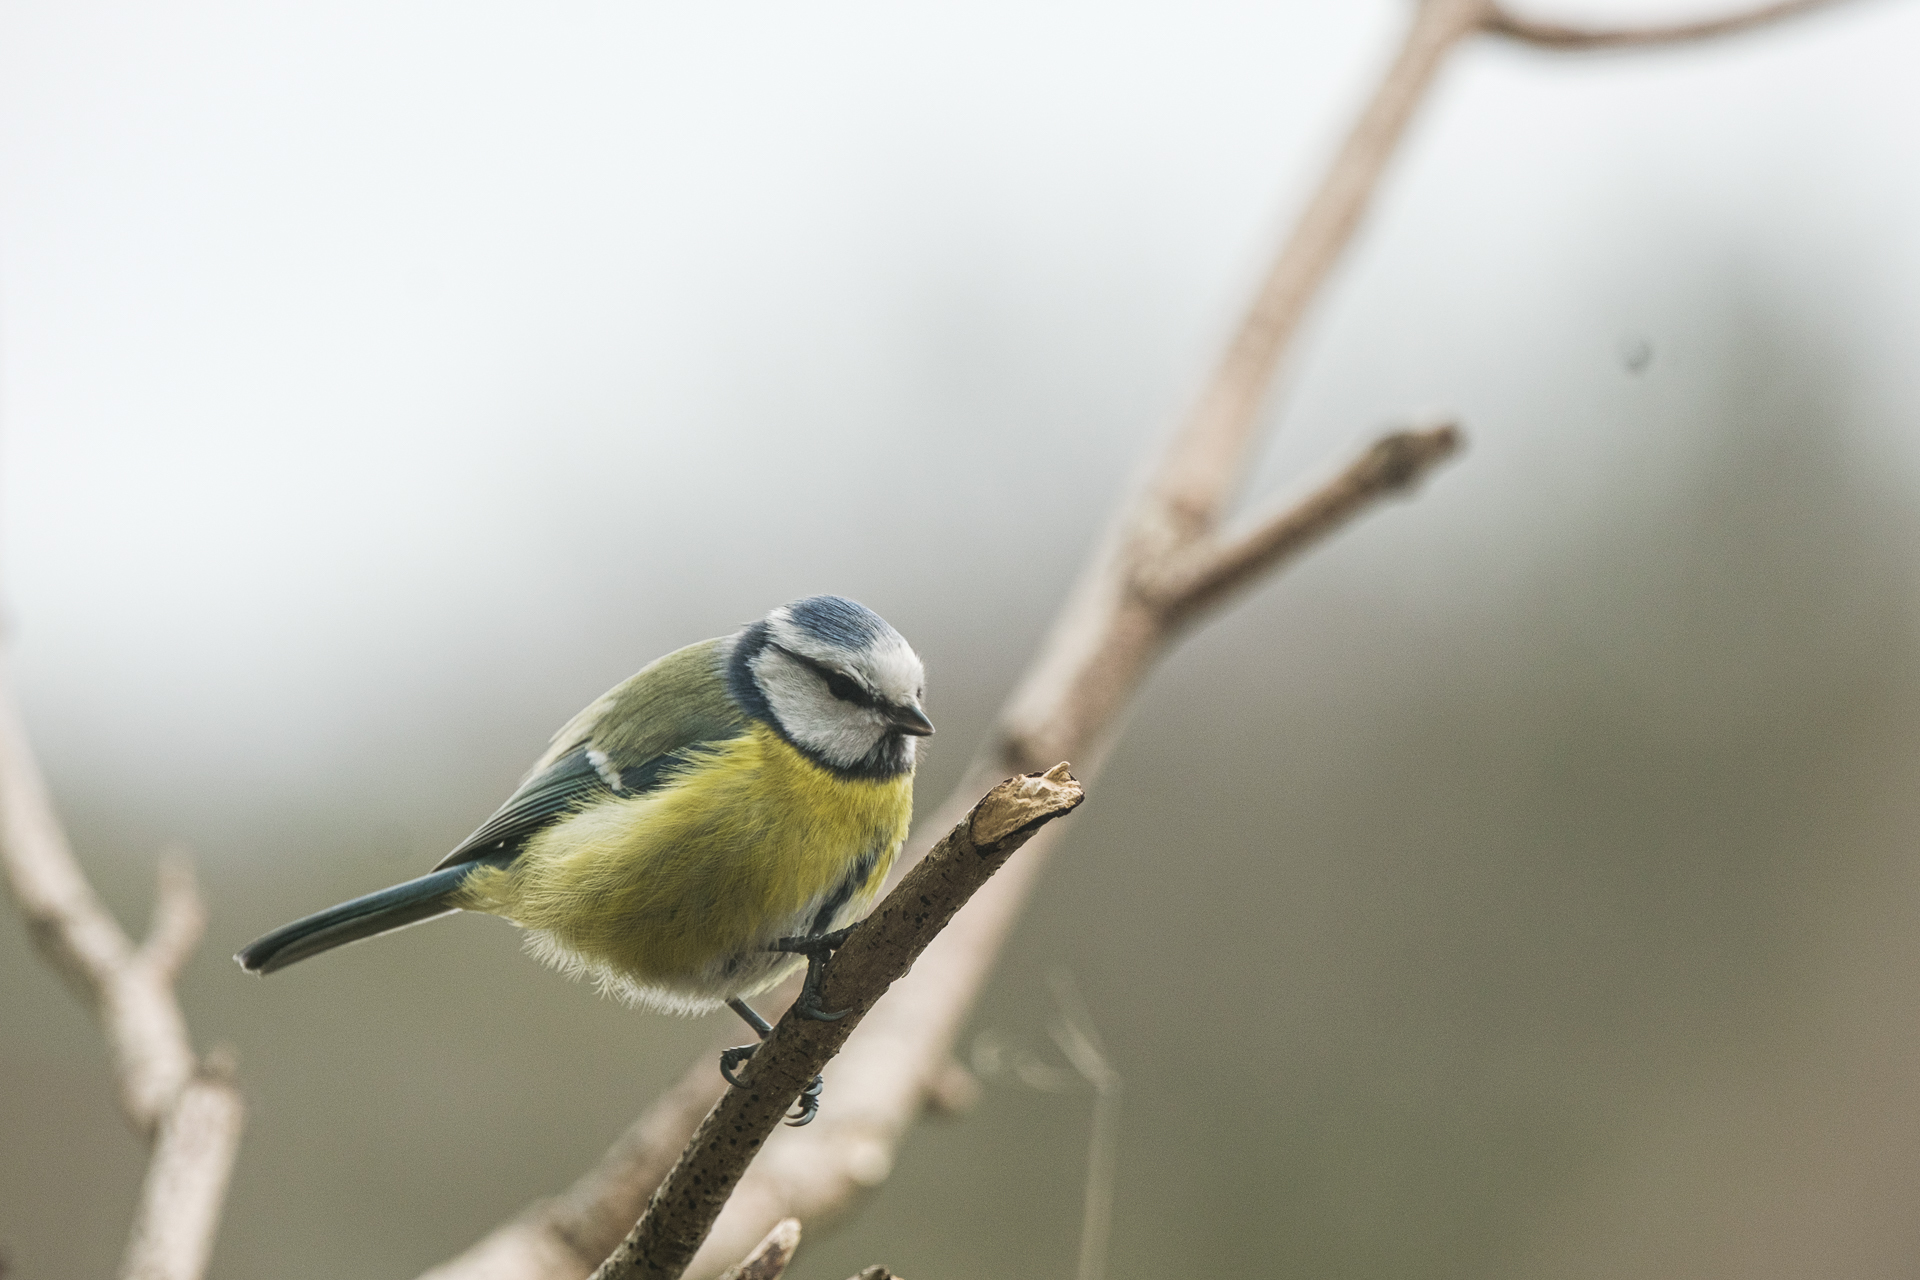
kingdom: Animalia
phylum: Chordata
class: Aves
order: Passeriformes
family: Paridae
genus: Cyanistes
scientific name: Cyanistes caeruleus
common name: Eurasian blue tit
